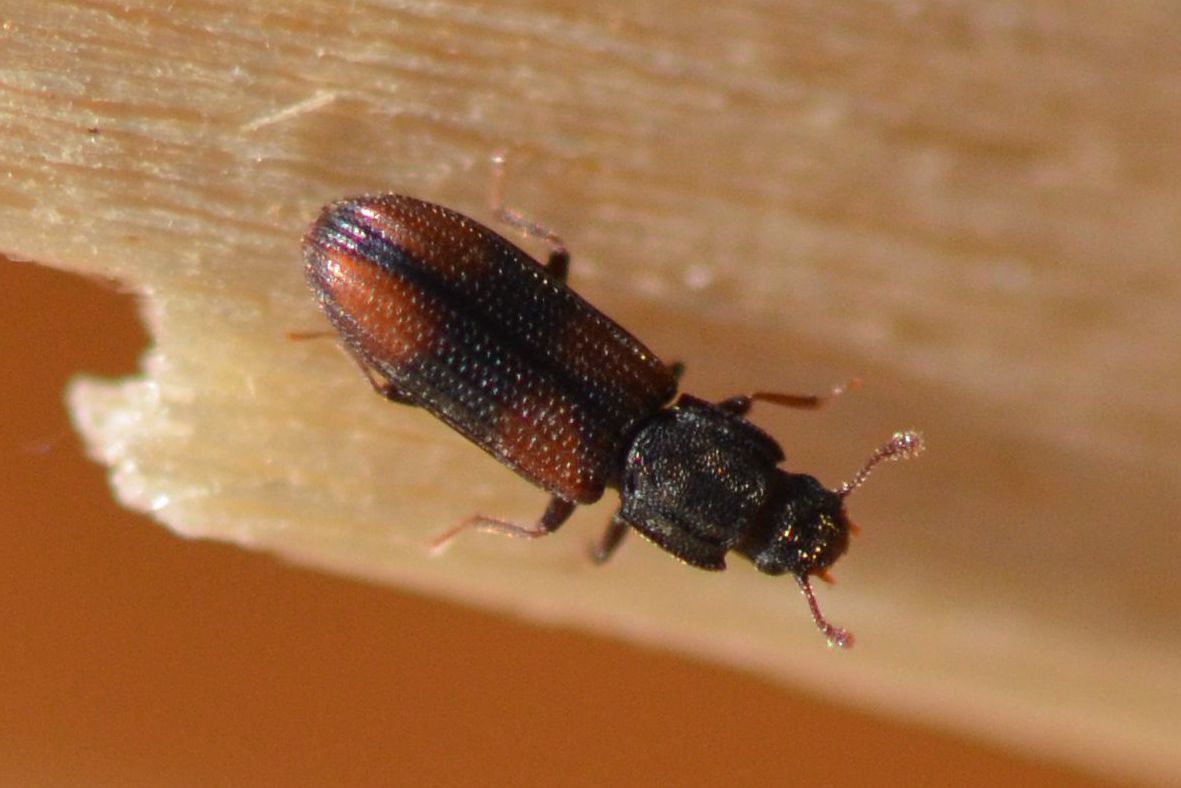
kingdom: Animalia
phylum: Arthropoda
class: Insecta
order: Coleoptera
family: Zopheridae
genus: Bitoma
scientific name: Bitoma crenata
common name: Bark beetle
